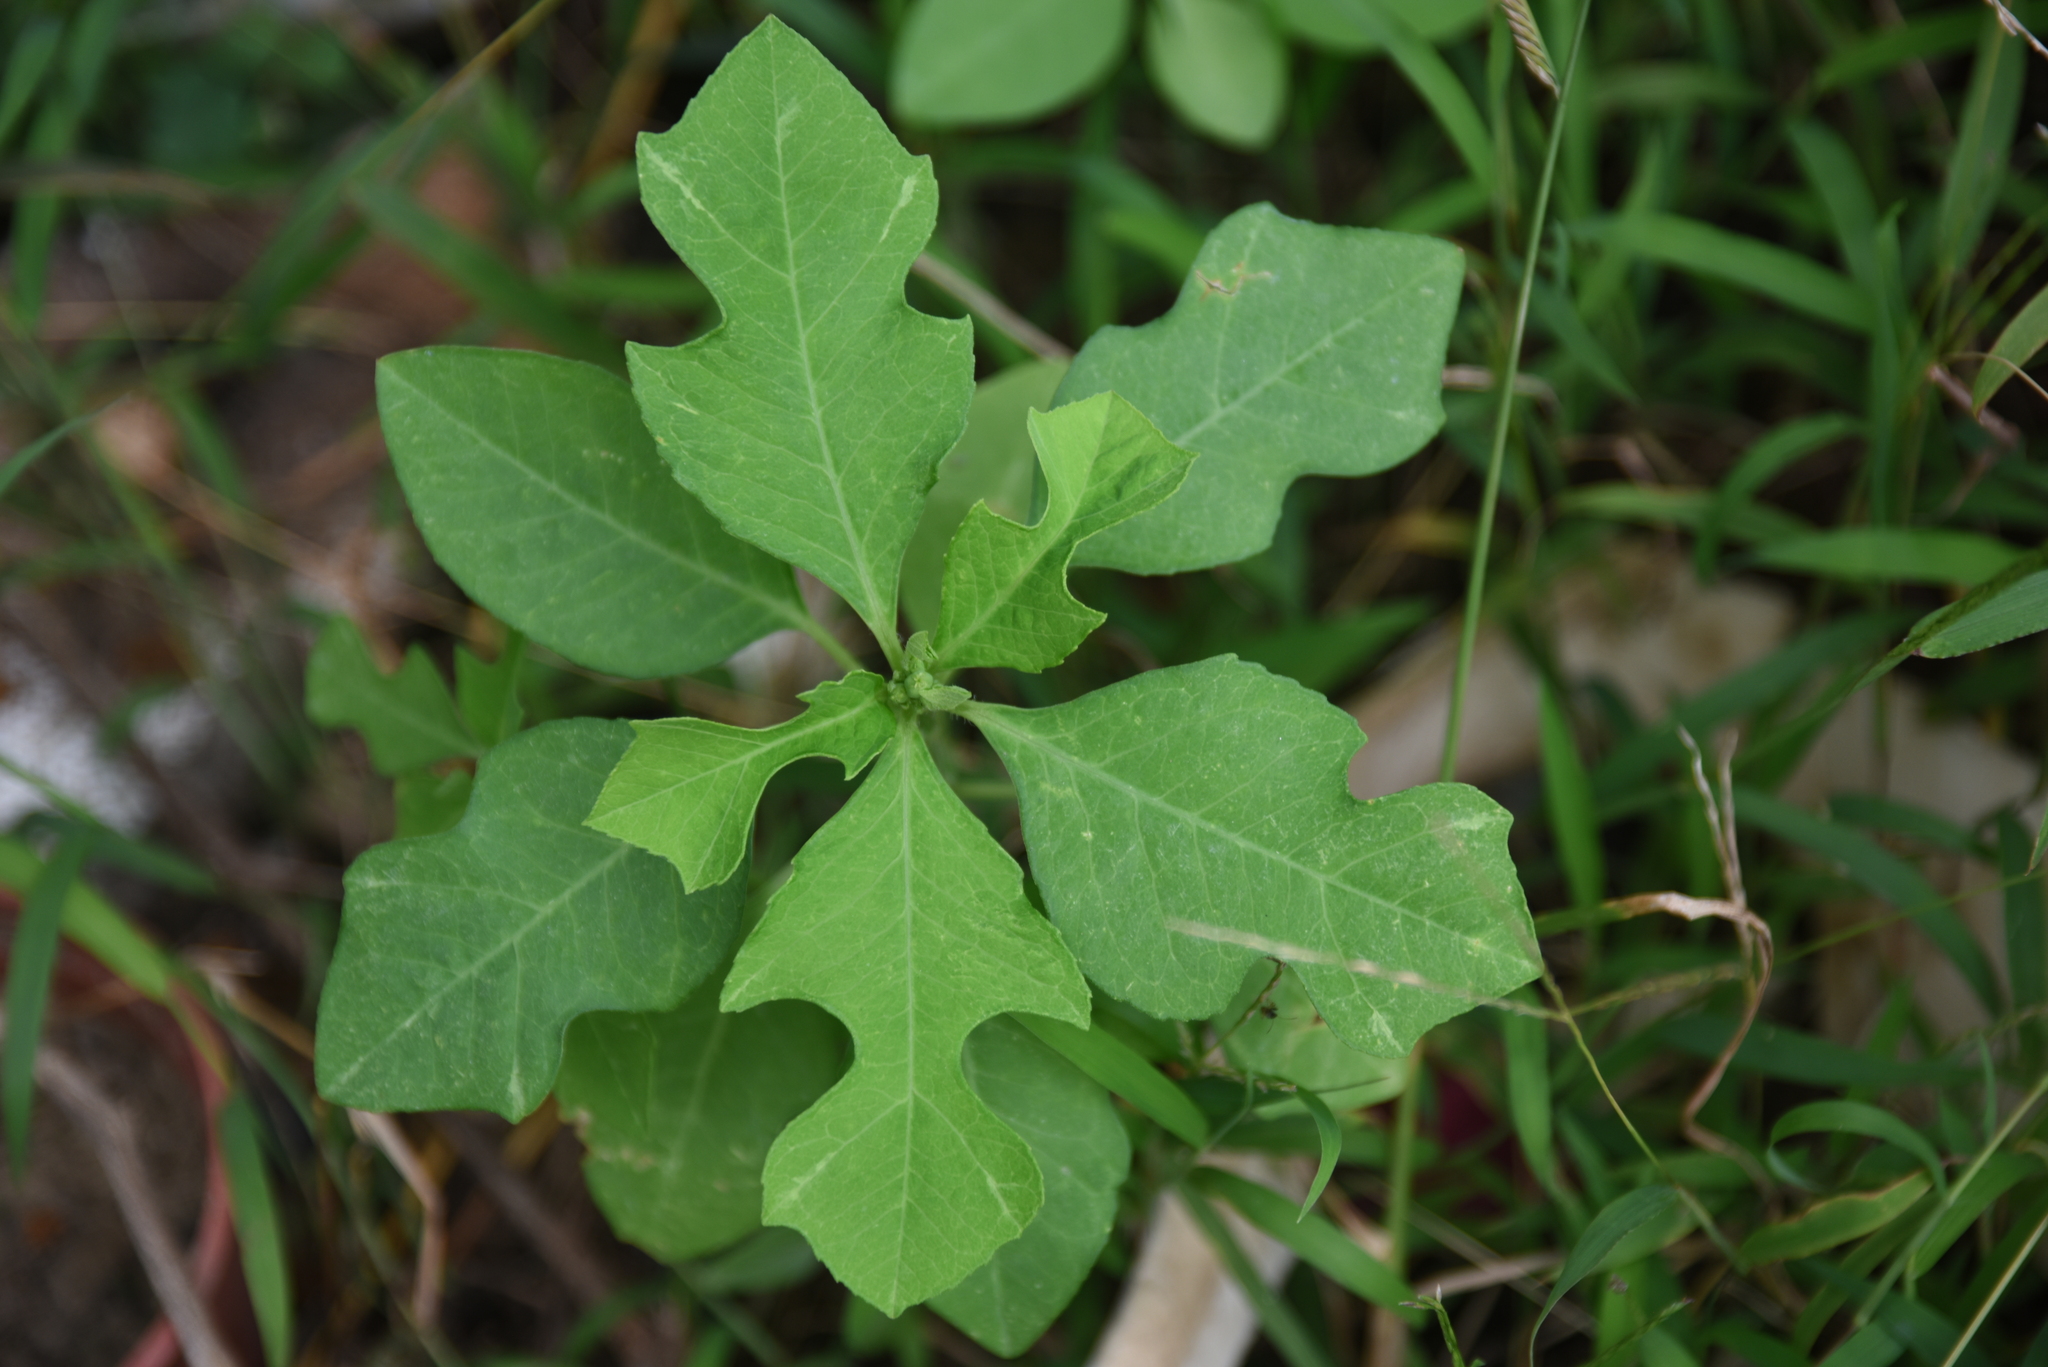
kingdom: Plantae
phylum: Tracheophyta
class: Magnoliopsida
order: Malpighiales
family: Euphorbiaceae
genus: Euphorbia
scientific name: Euphorbia heterophylla
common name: Mexican fireplant
